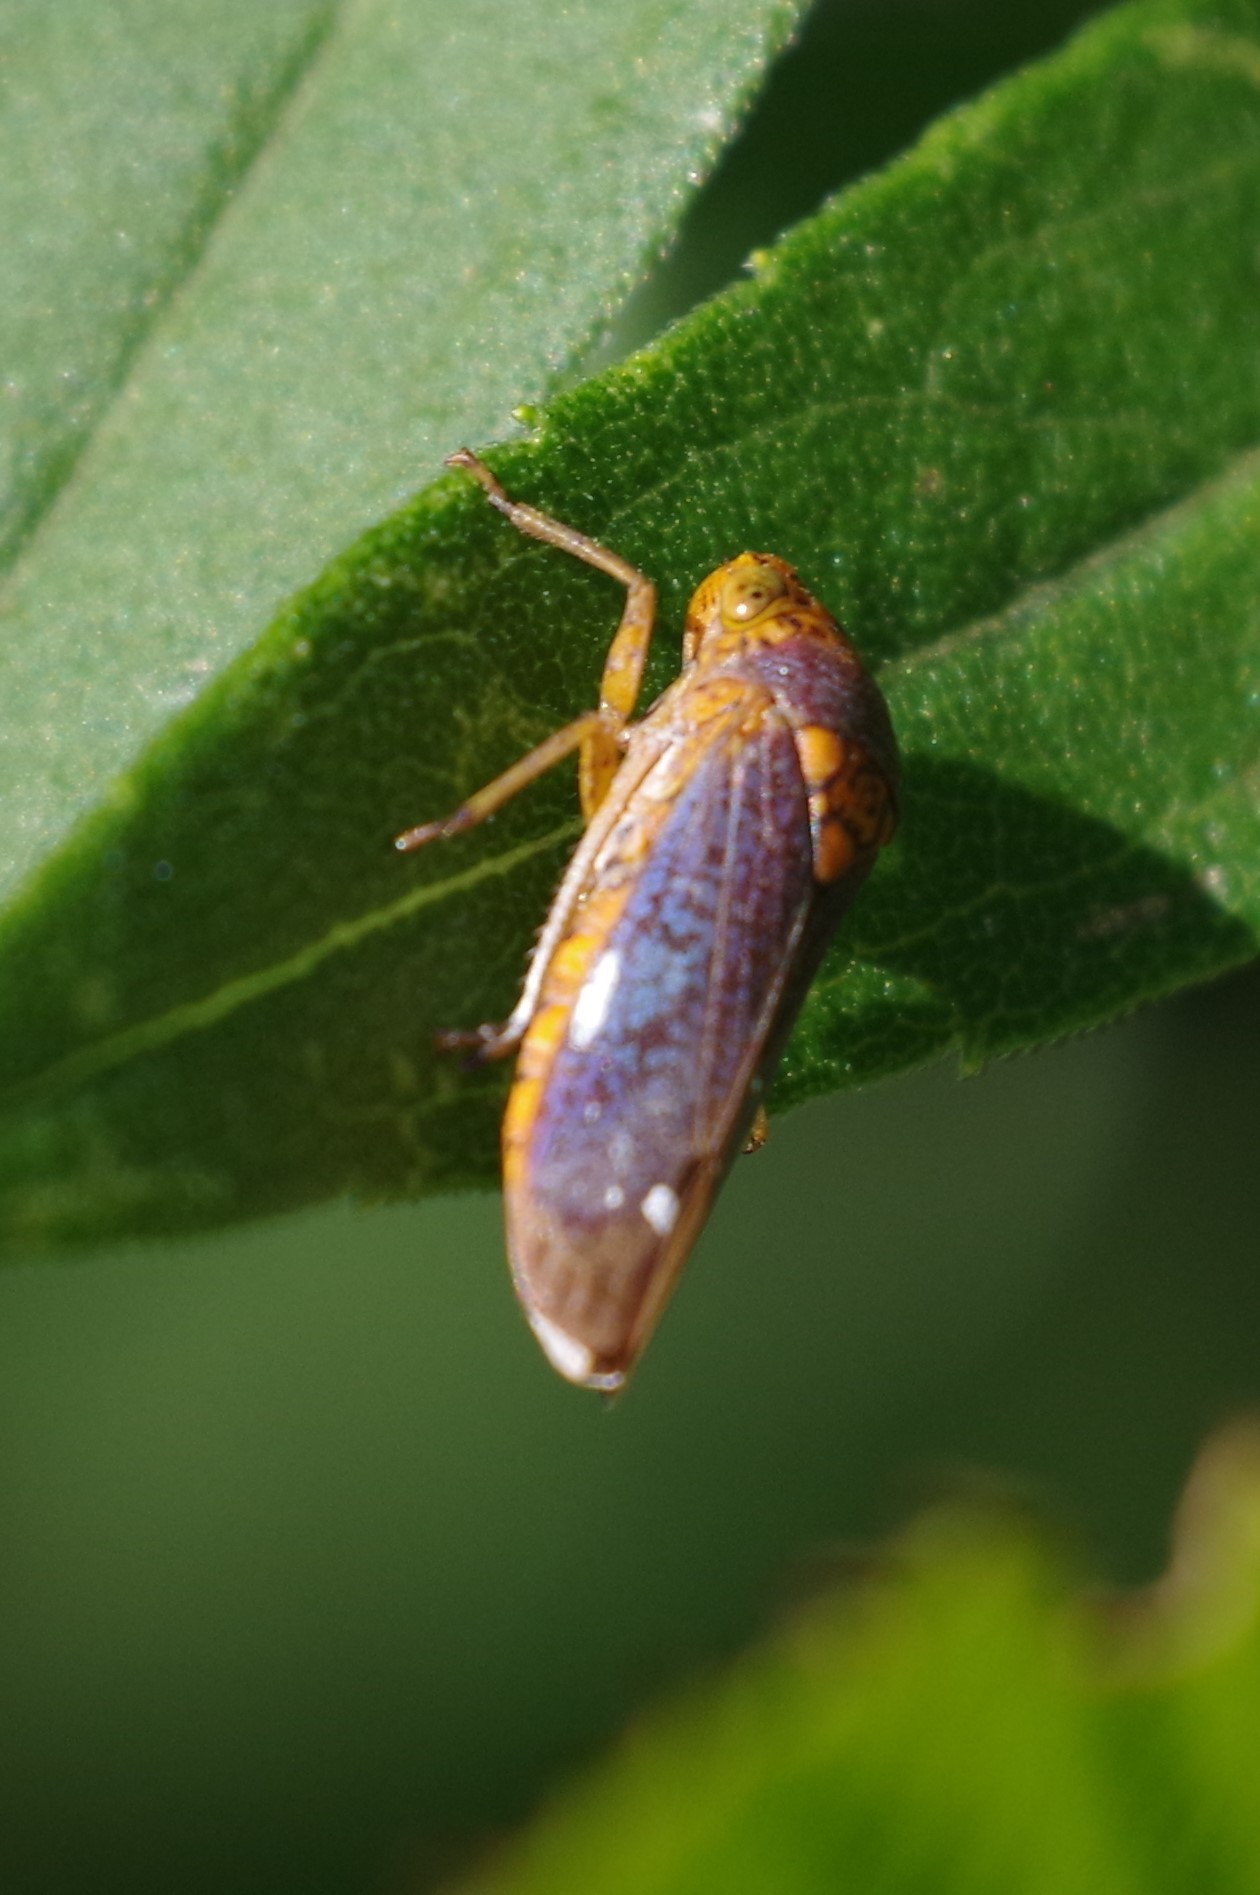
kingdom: Animalia
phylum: Arthropoda
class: Insecta
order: Hemiptera
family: Cicadellidae
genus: Oncometopia
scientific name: Oncometopia orbona
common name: Broad-headed sharpshooter
